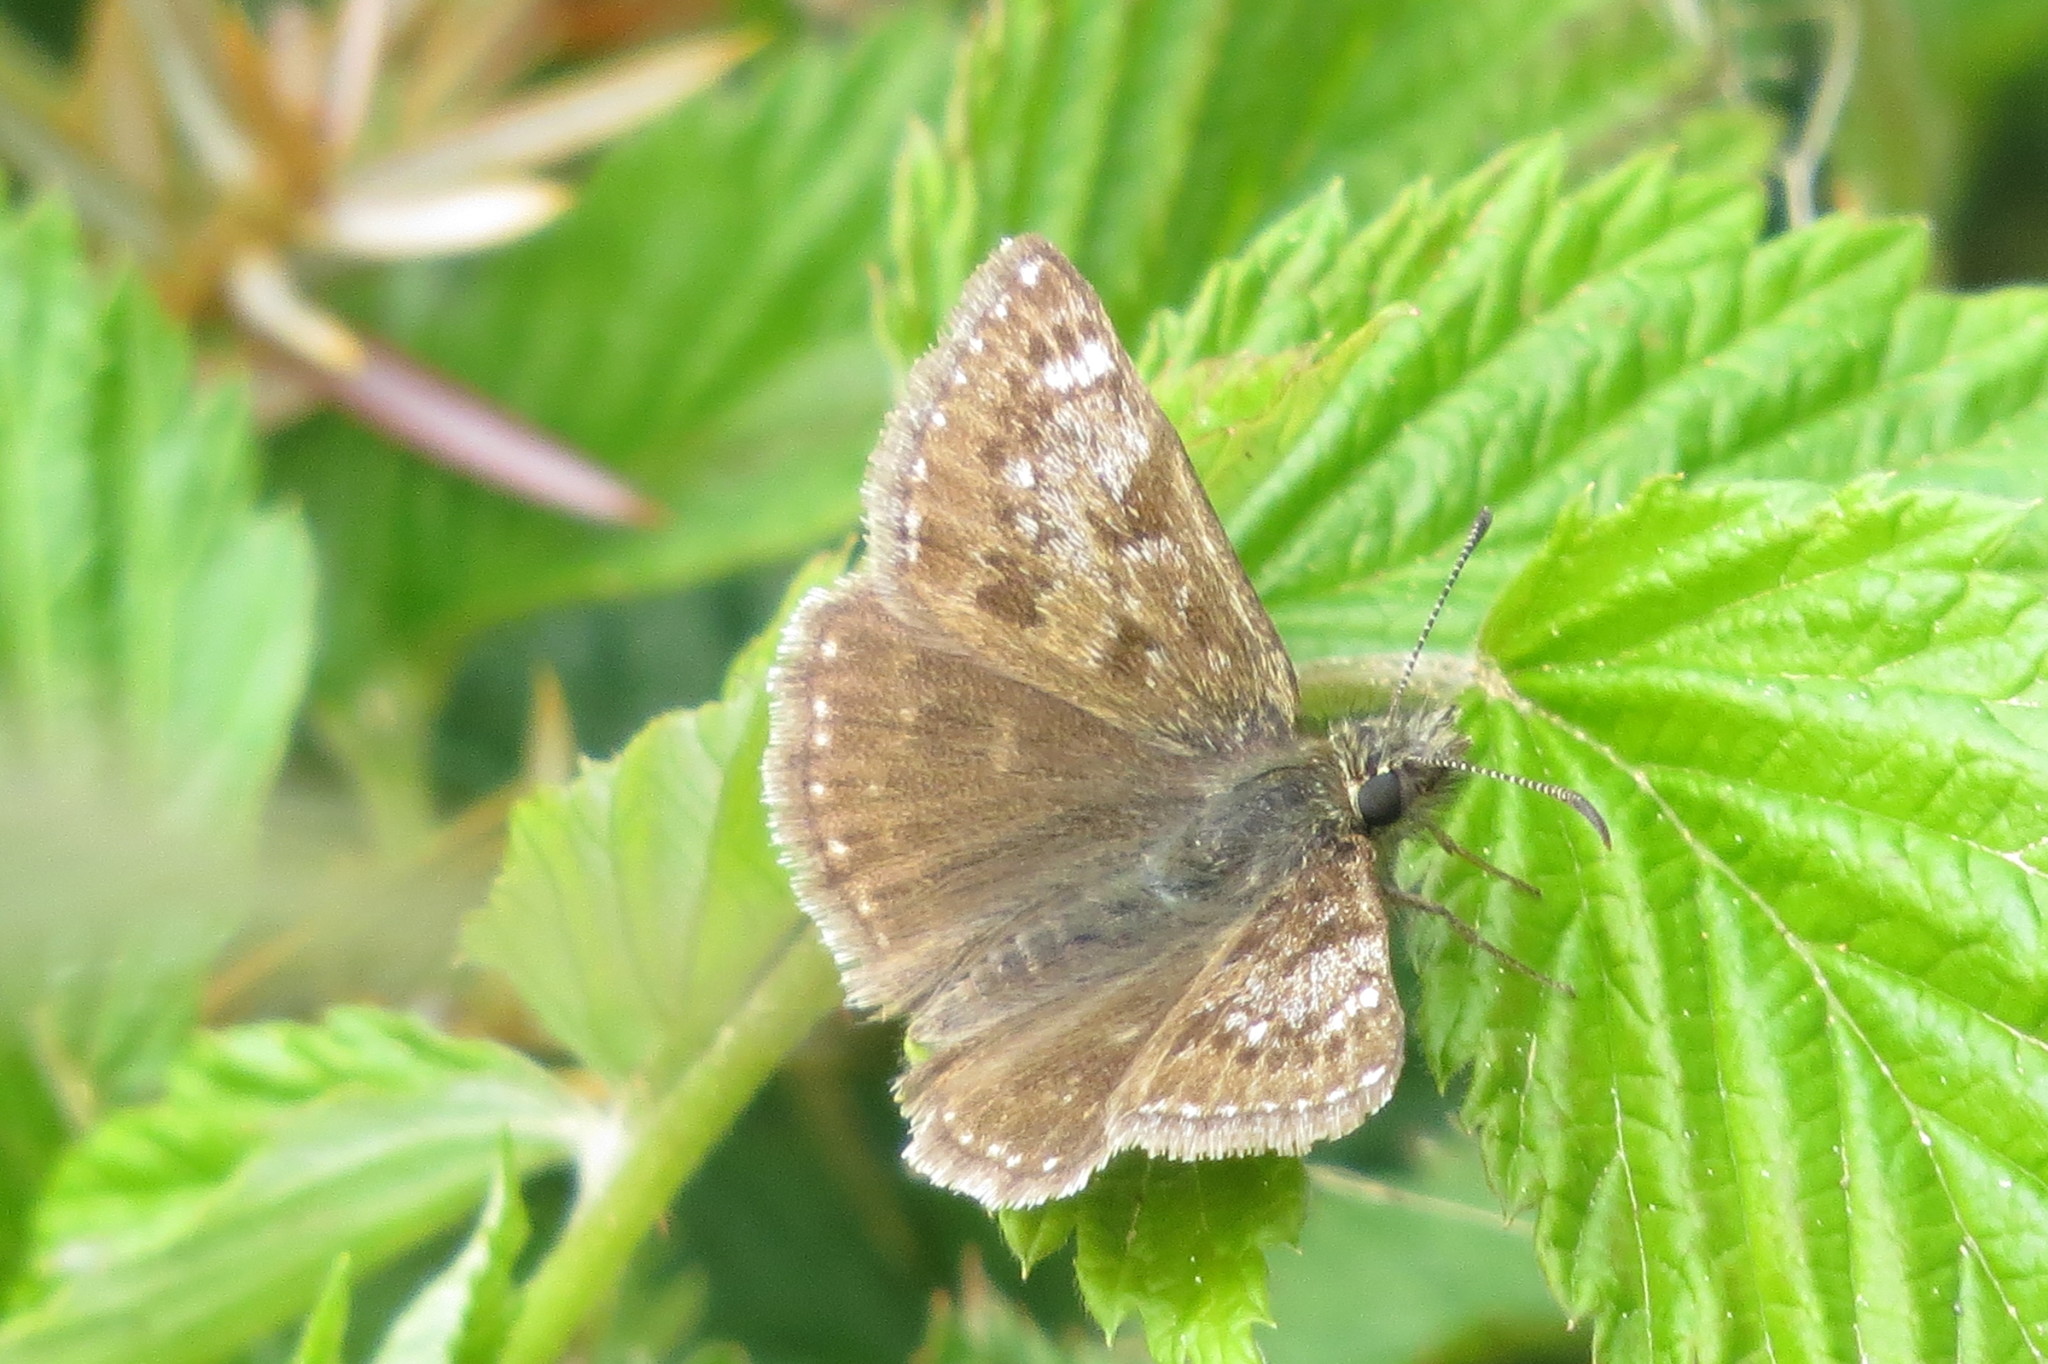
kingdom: Animalia
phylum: Arthropoda
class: Insecta
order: Lepidoptera
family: Hesperiidae
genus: Erynnis
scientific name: Erynnis tages
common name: Dingy skipper
